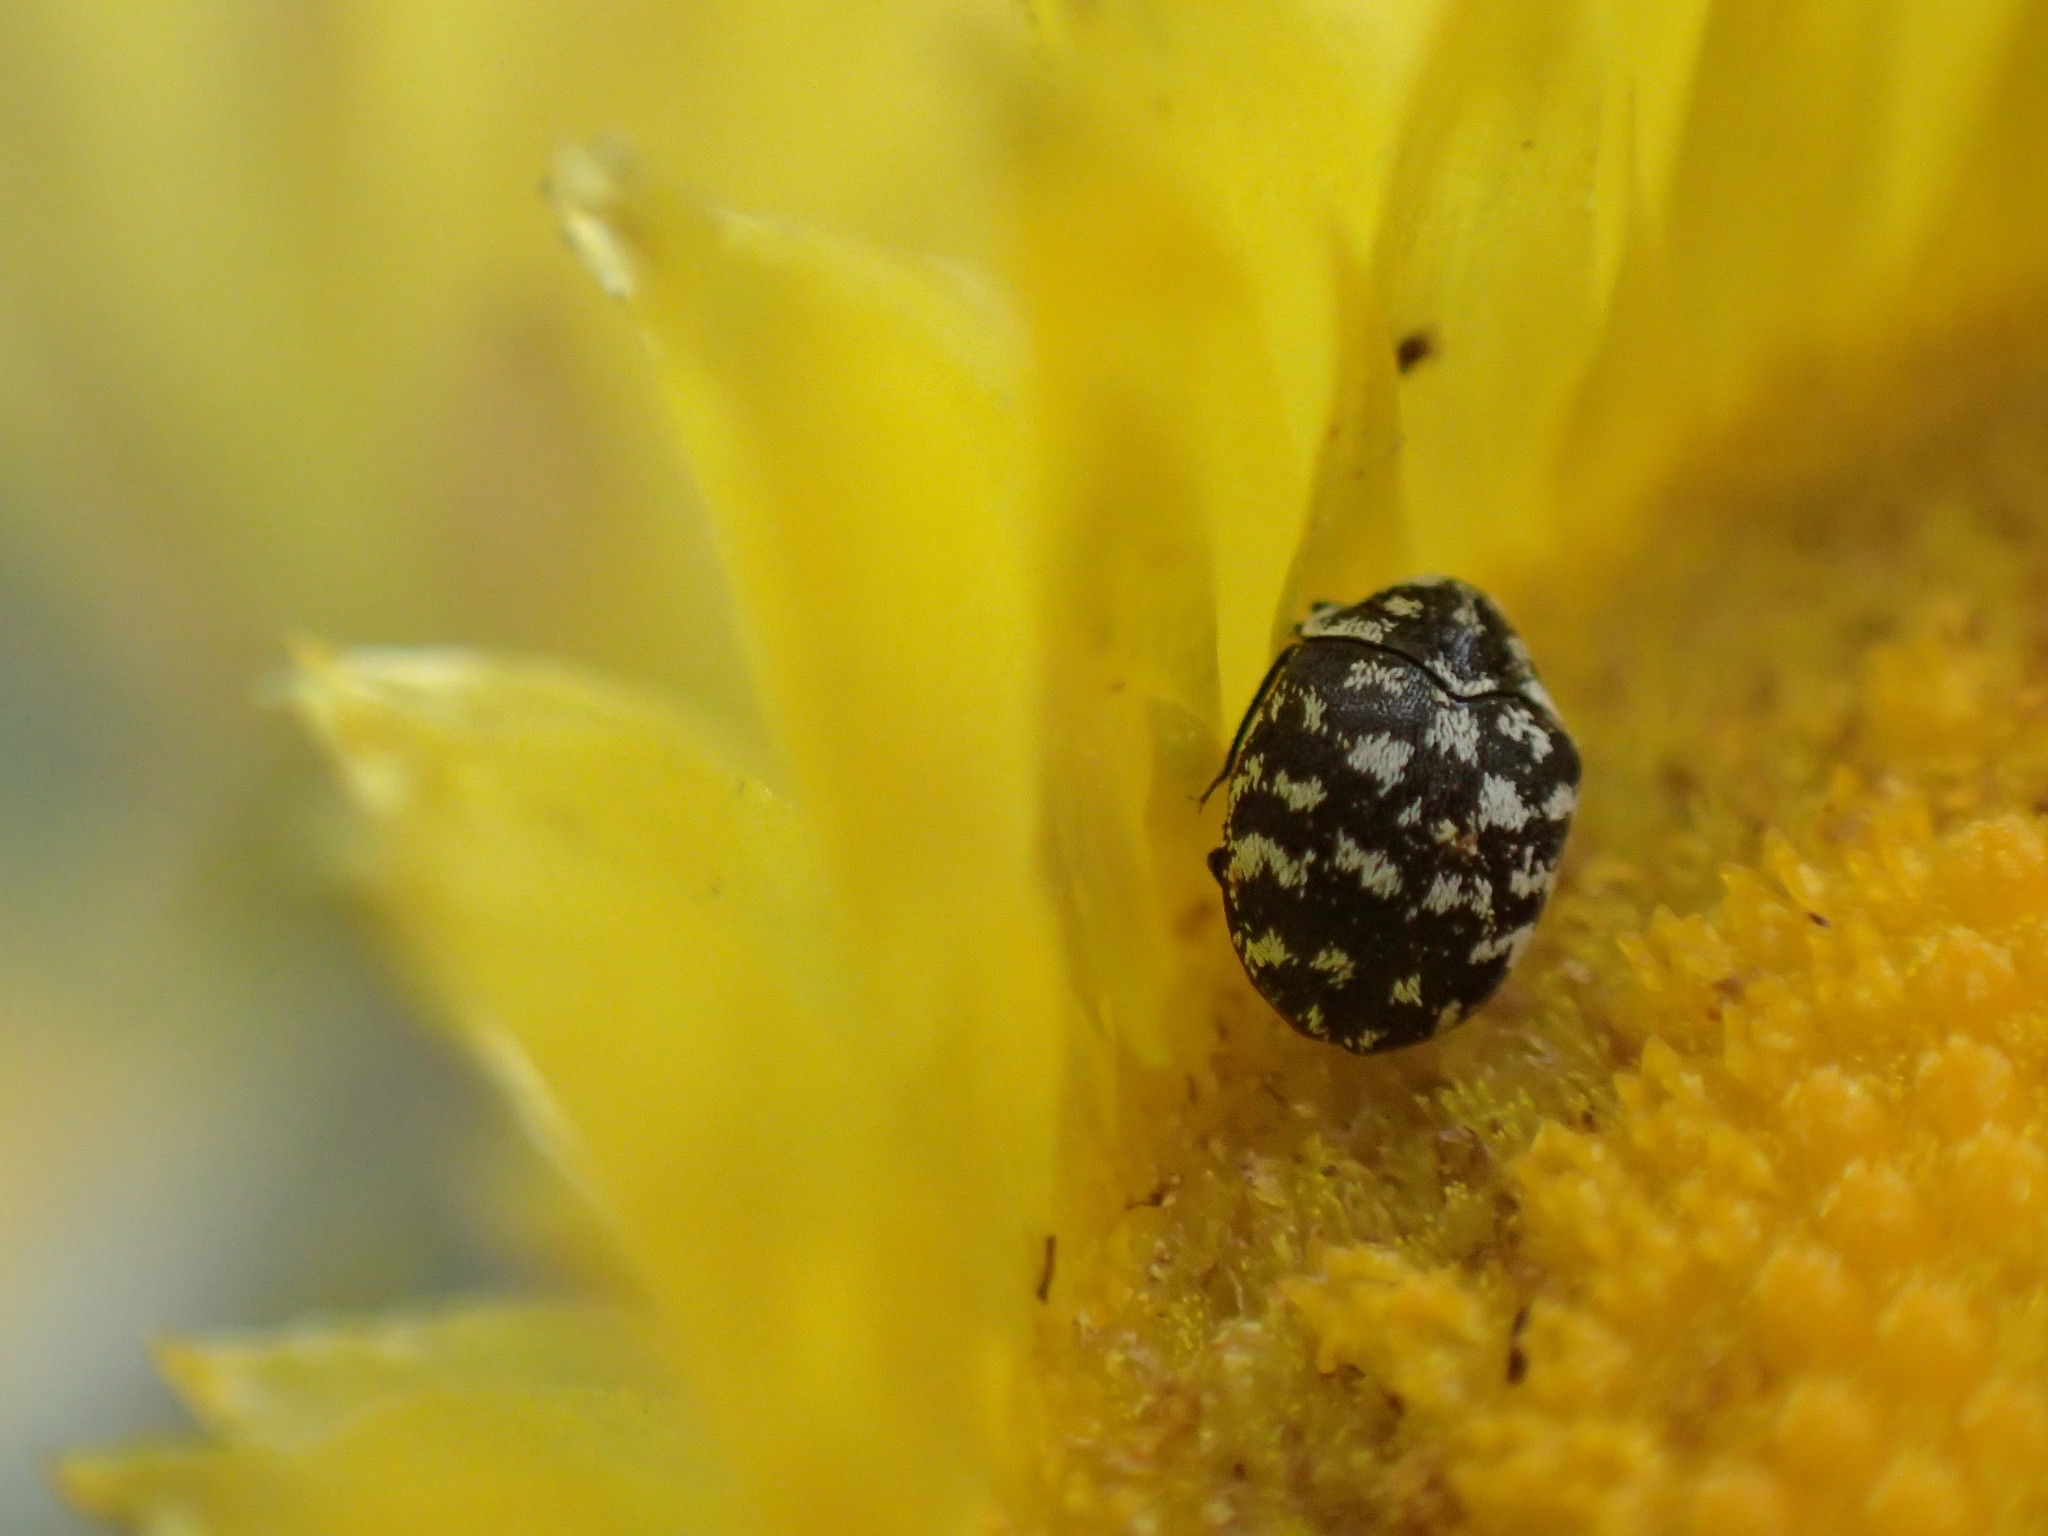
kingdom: Animalia
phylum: Arthropoda
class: Insecta
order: Coleoptera
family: Dermestidae
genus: Anthrenus
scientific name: Anthrenus
